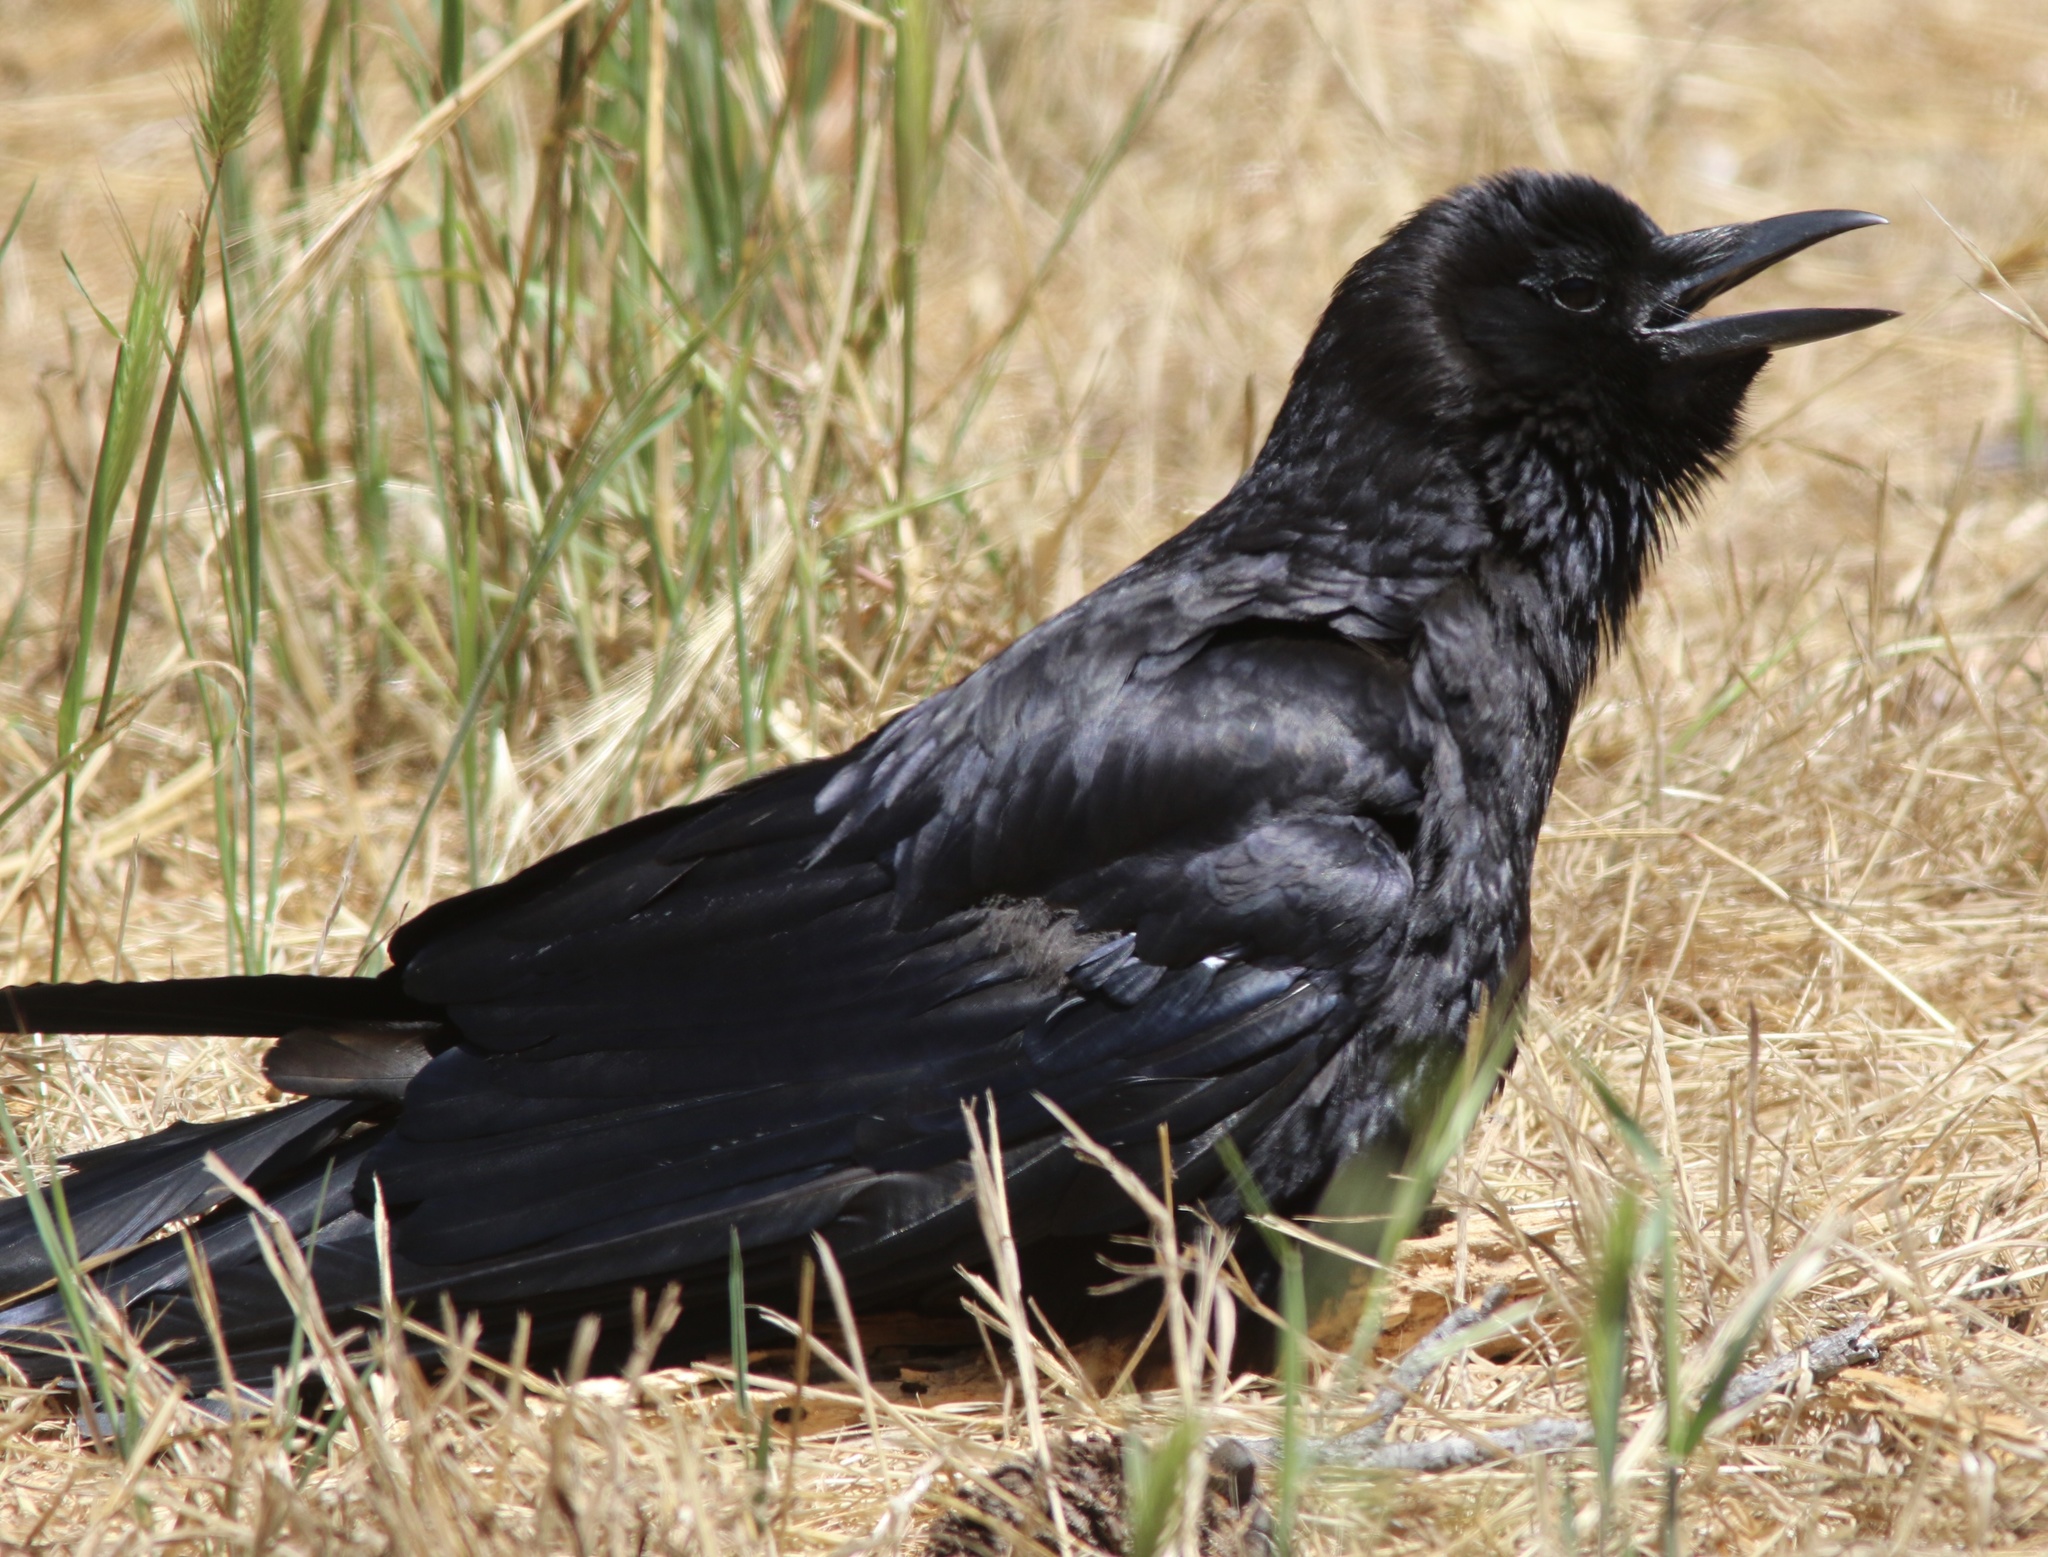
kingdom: Animalia
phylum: Chordata
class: Aves
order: Passeriformes
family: Corvidae
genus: Corvus
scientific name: Corvus brachyrhynchos
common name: American crow
